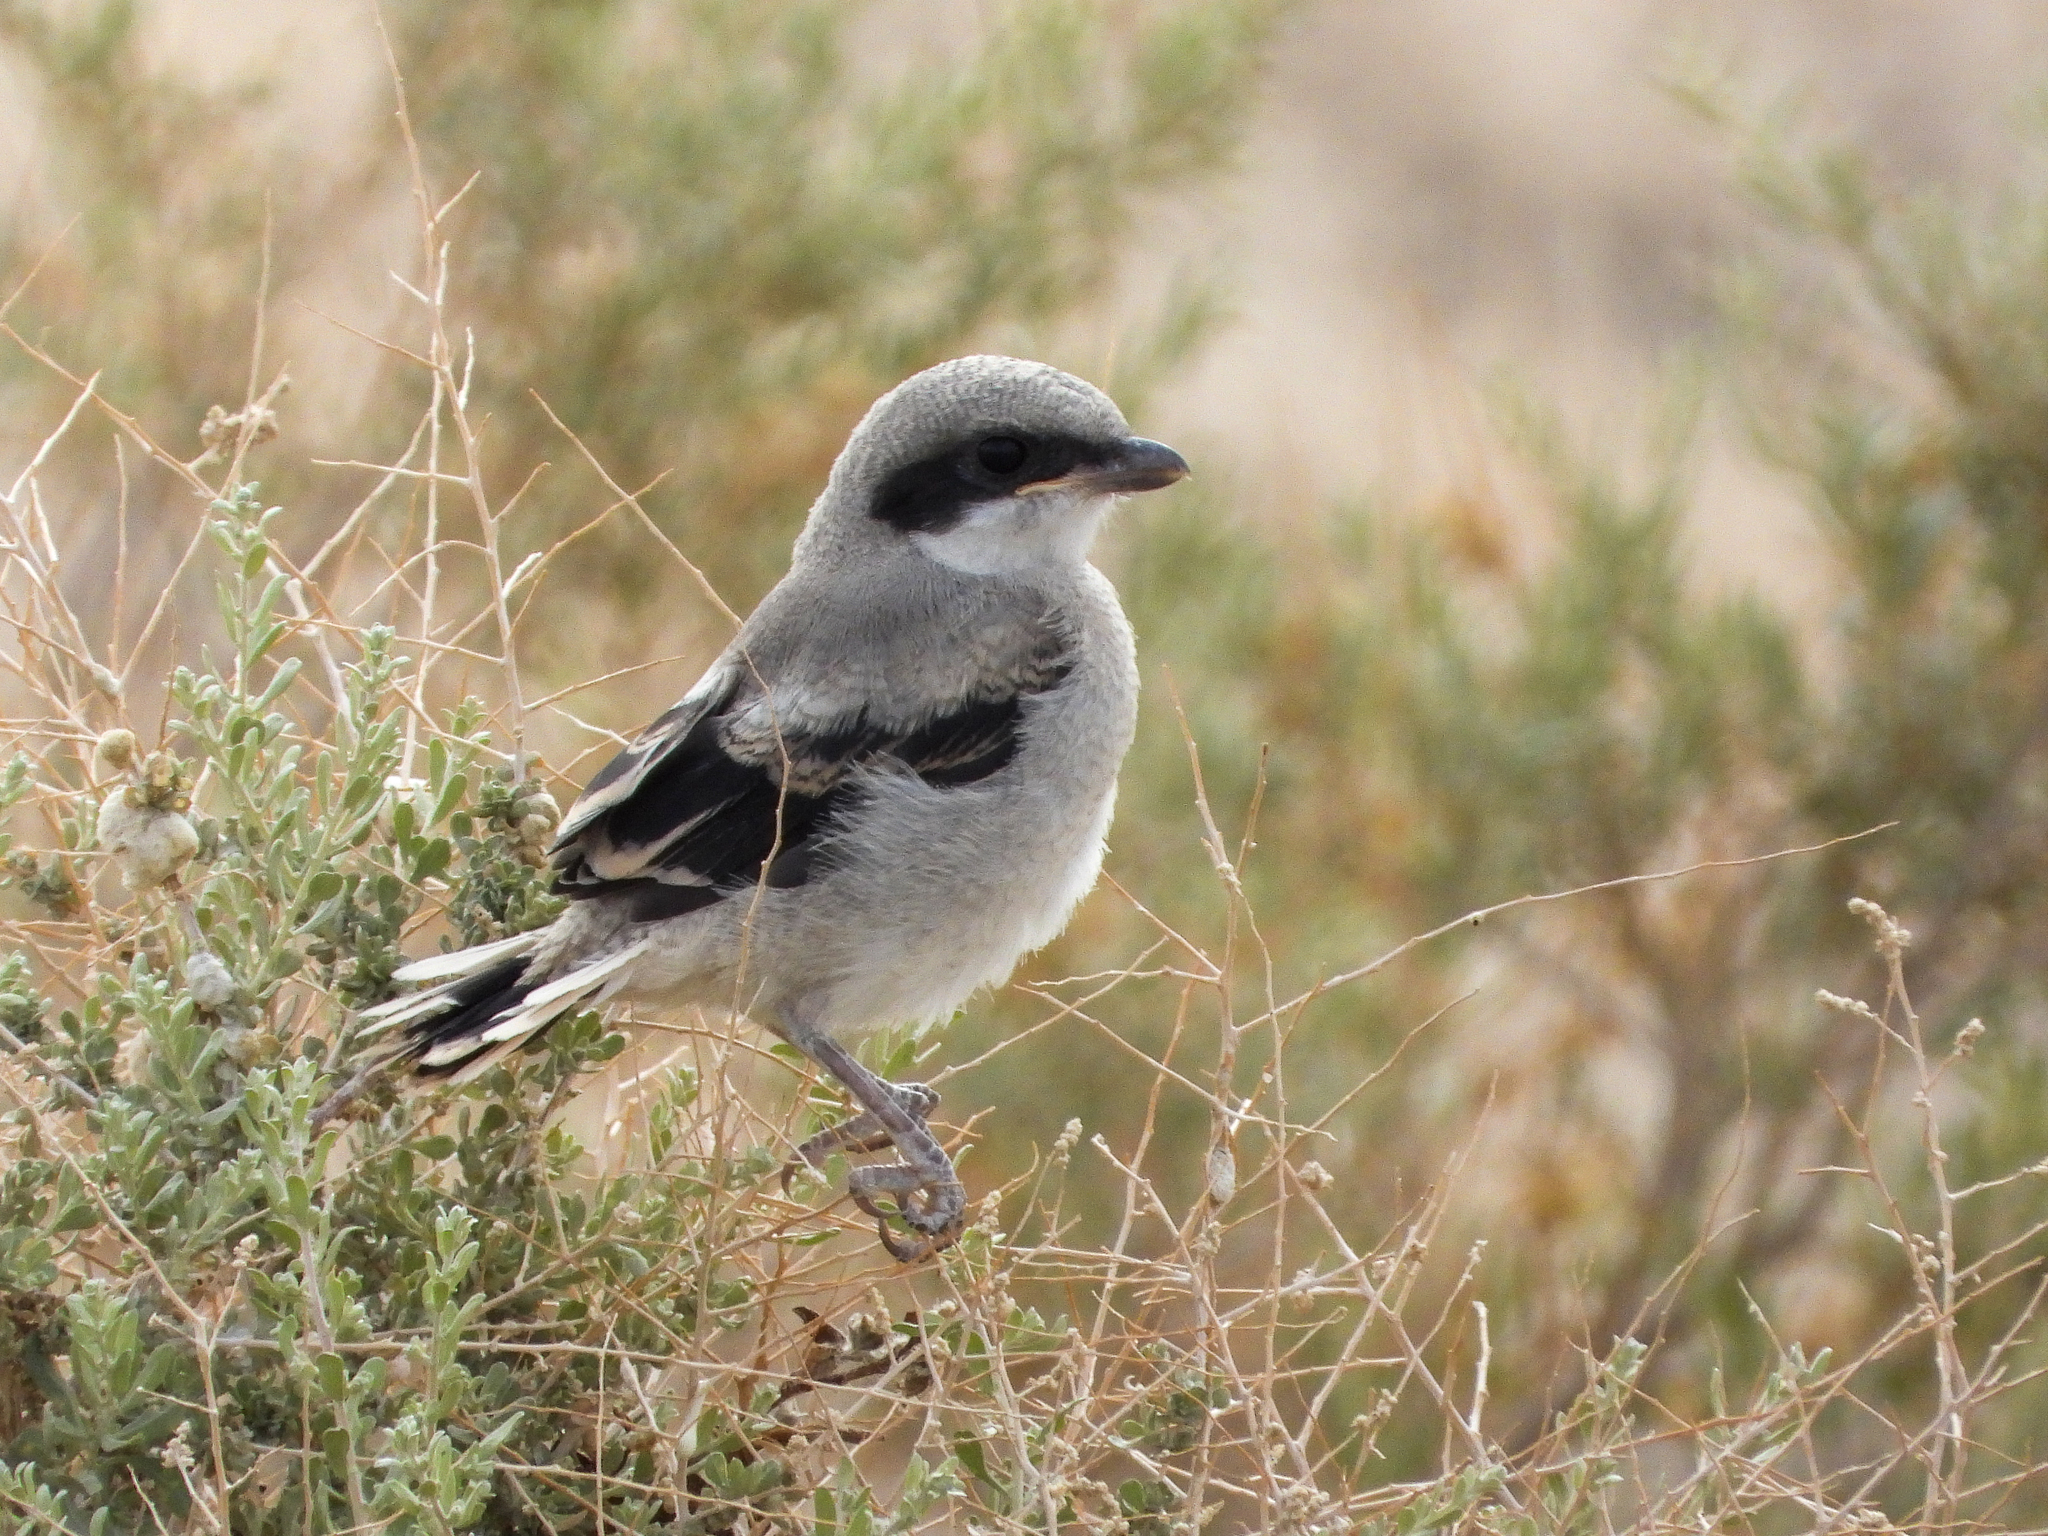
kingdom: Animalia
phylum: Chordata
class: Aves
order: Passeriformes
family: Laniidae
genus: Lanius
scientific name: Lanius ludovicianus
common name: Loggerhead shrike
